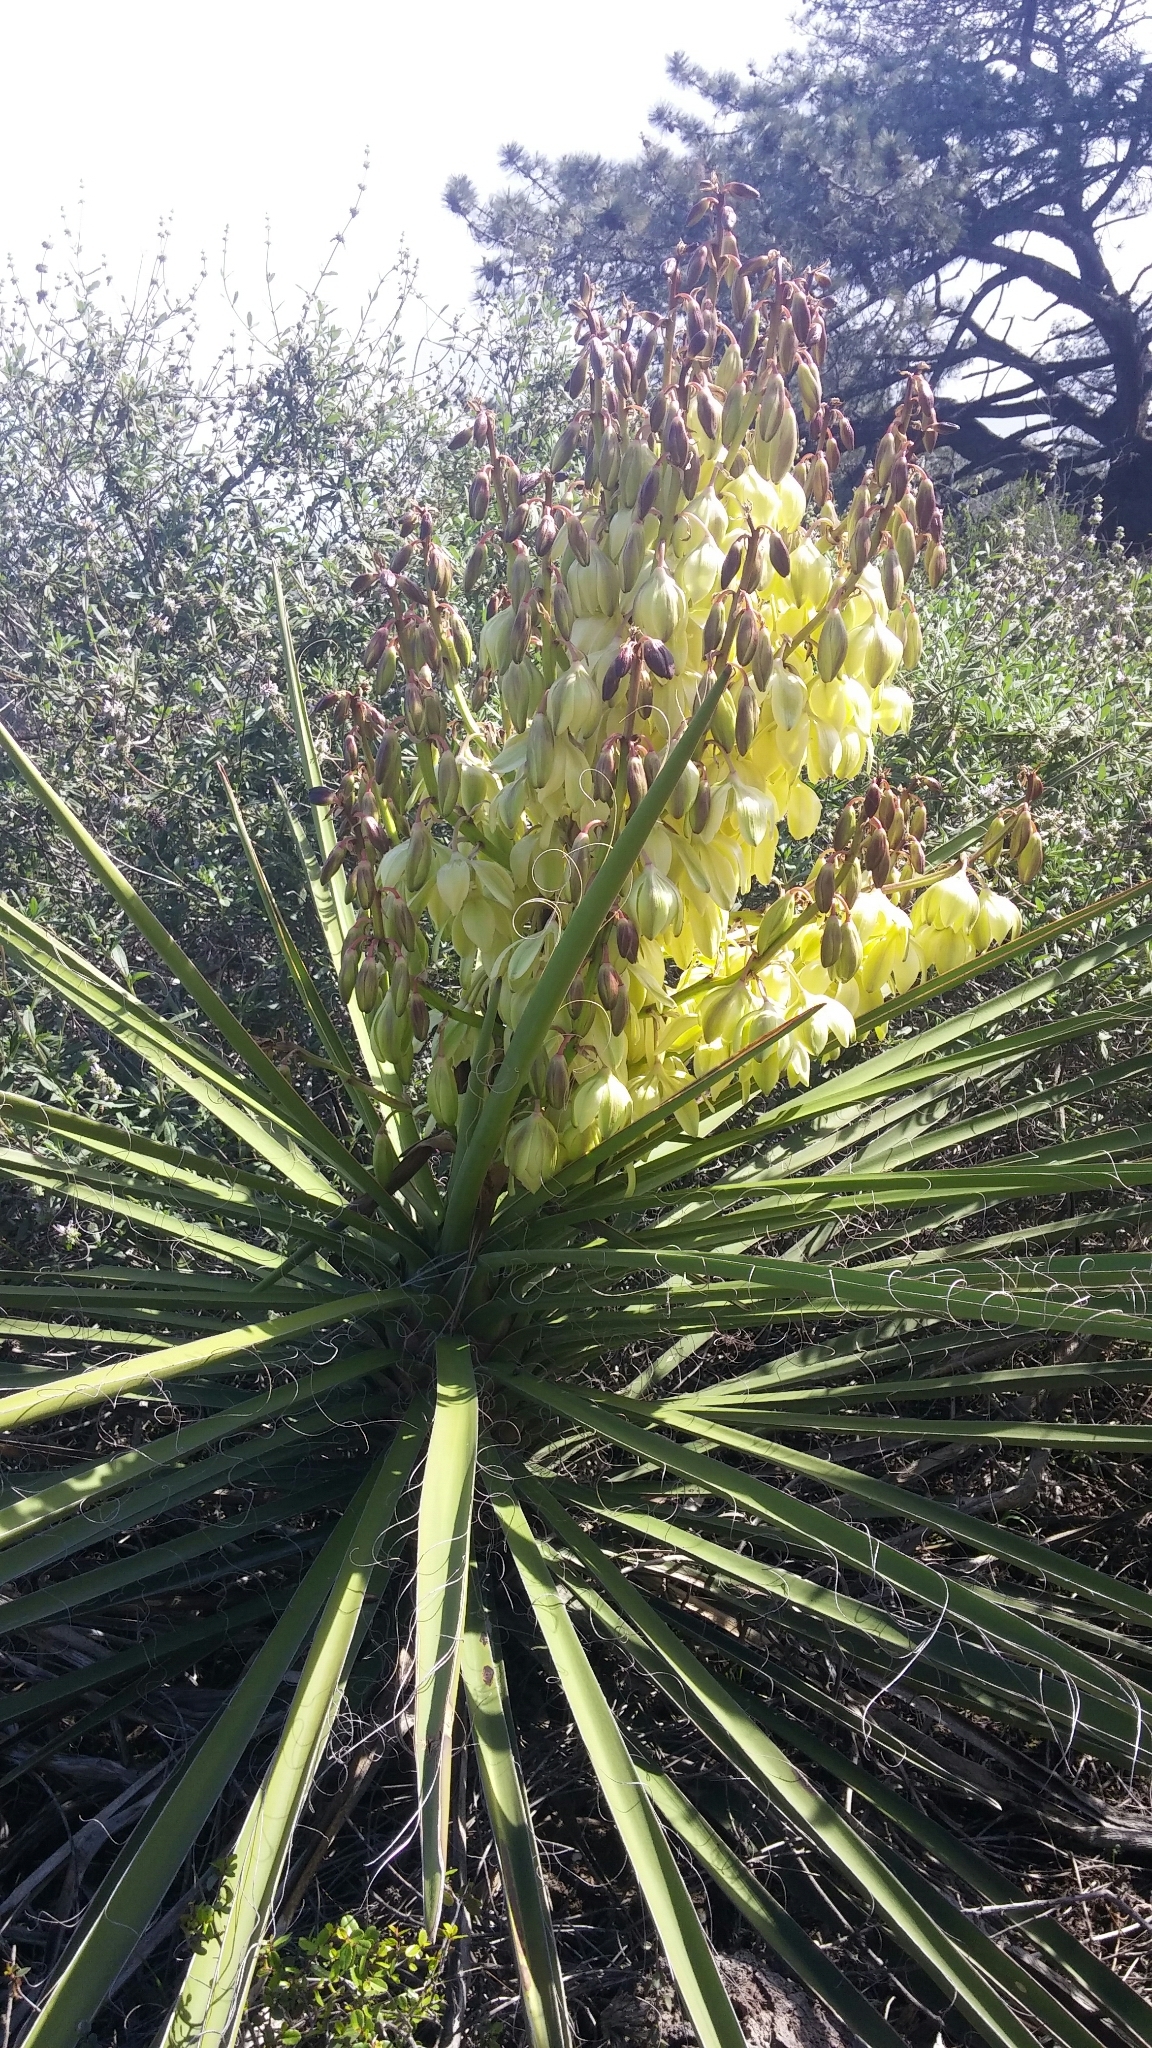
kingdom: Plantae
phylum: Tracheophyta
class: Liliopsida
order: Asparagales
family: Asparagaceae
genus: Yucca
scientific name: Yucca schidigera
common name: Mojave yucca
